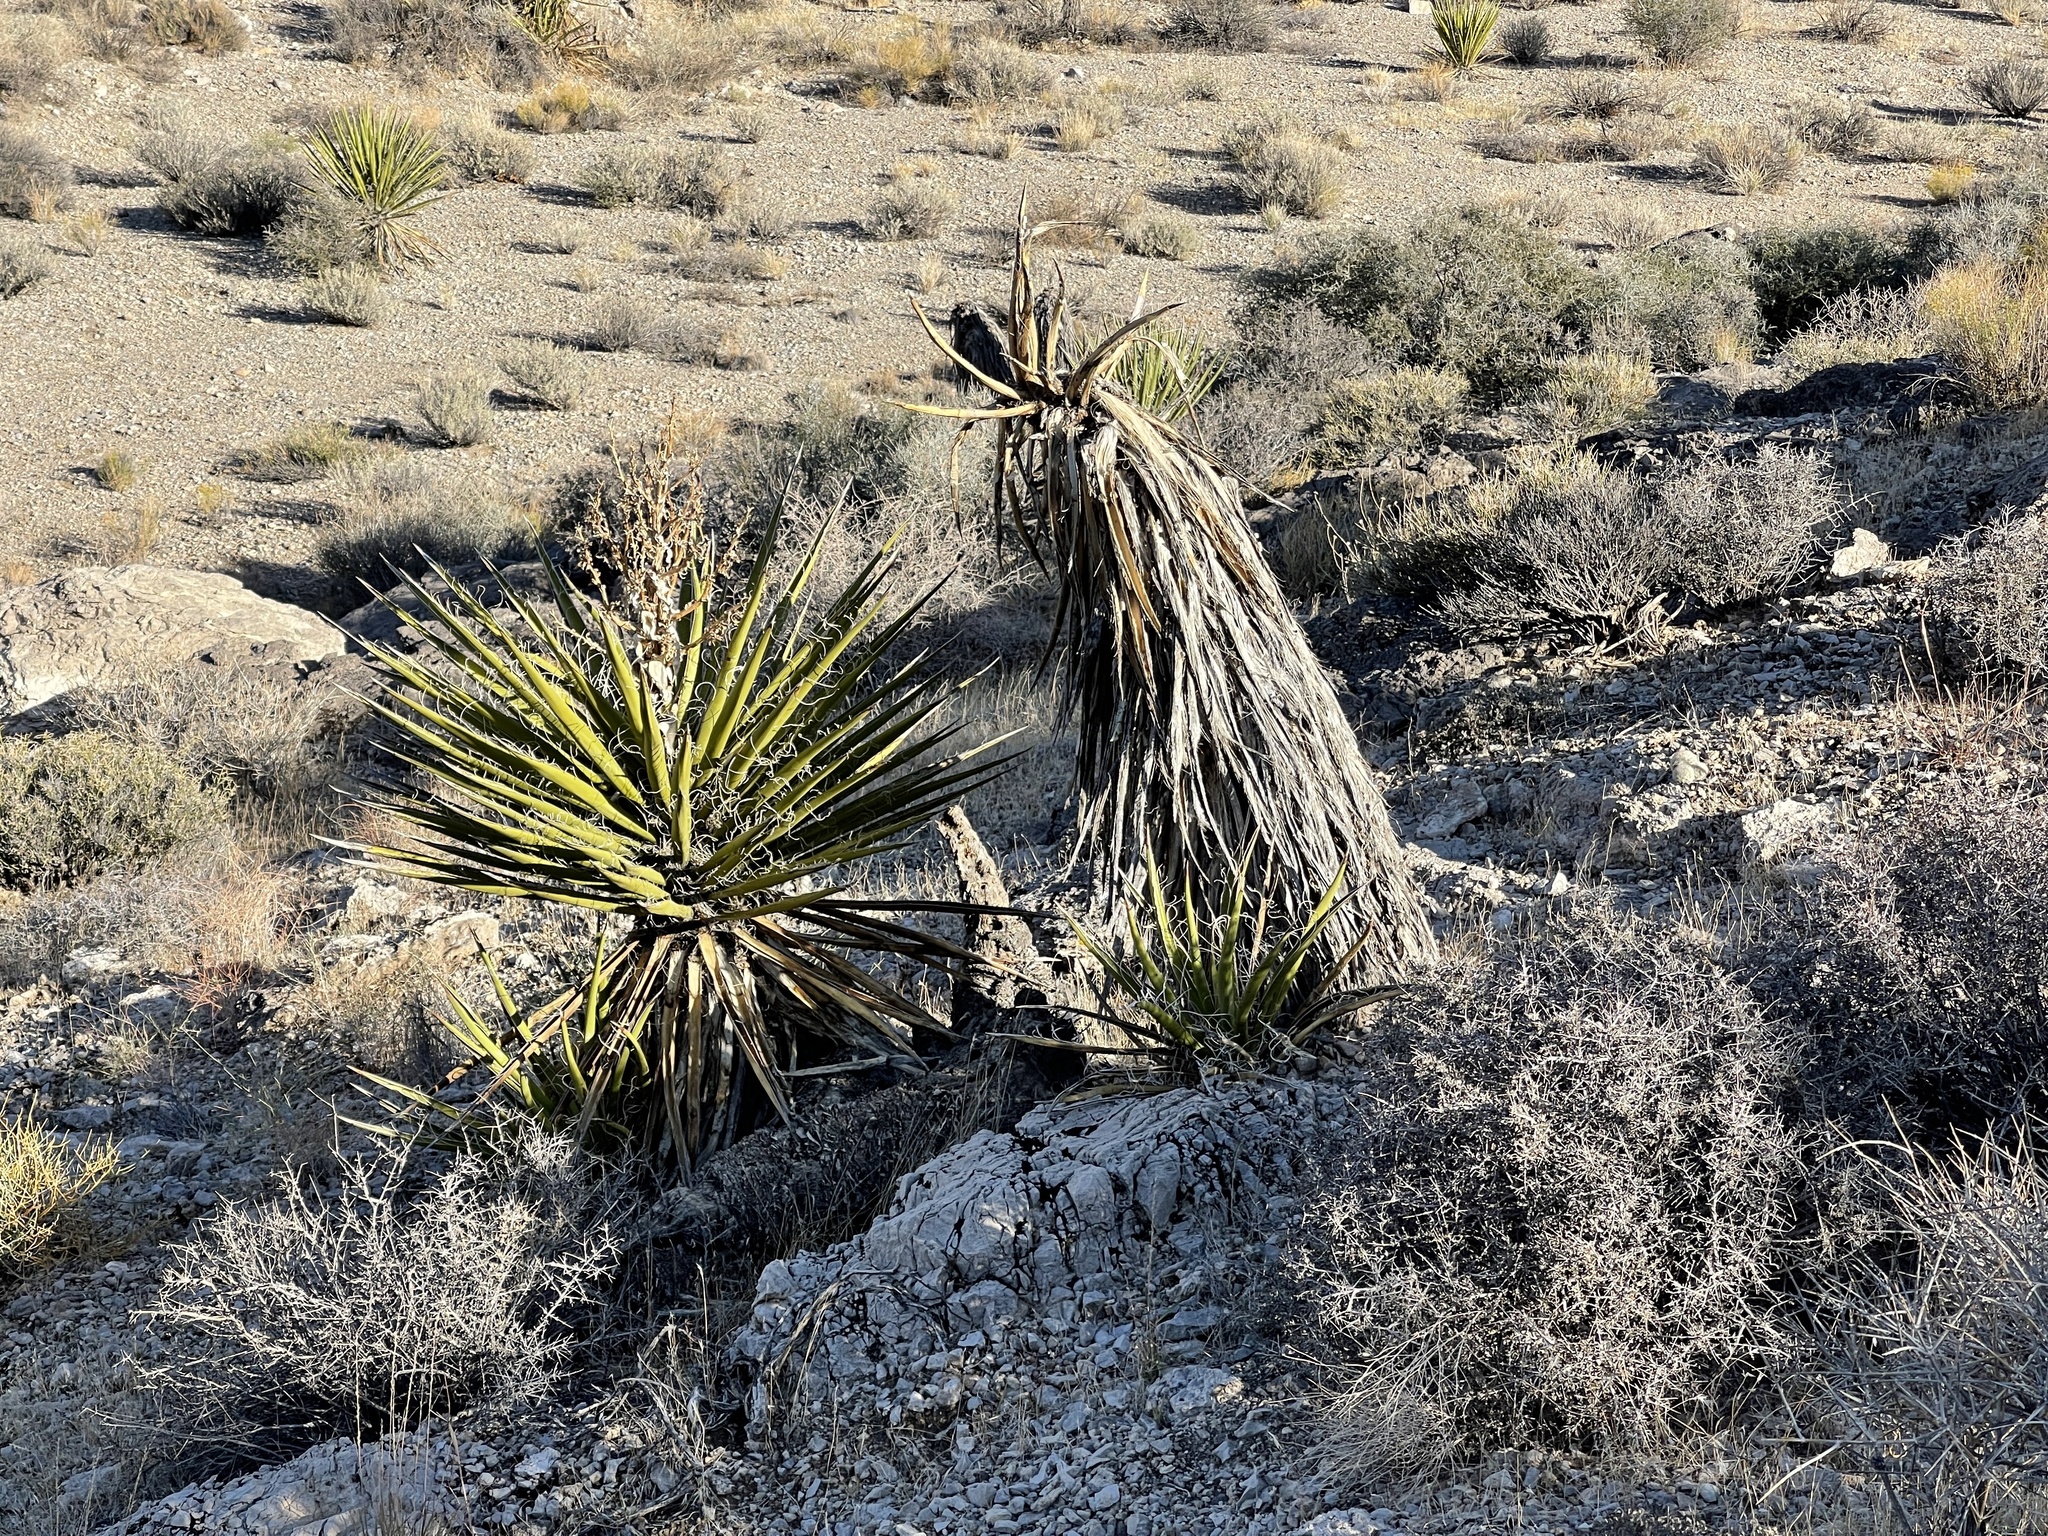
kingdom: Plantae
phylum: Tracheophyta
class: Liliopsida
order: Asparagales
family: Asparagaceae
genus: Yucca
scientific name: Yucca schidigera
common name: Mojave yucca
